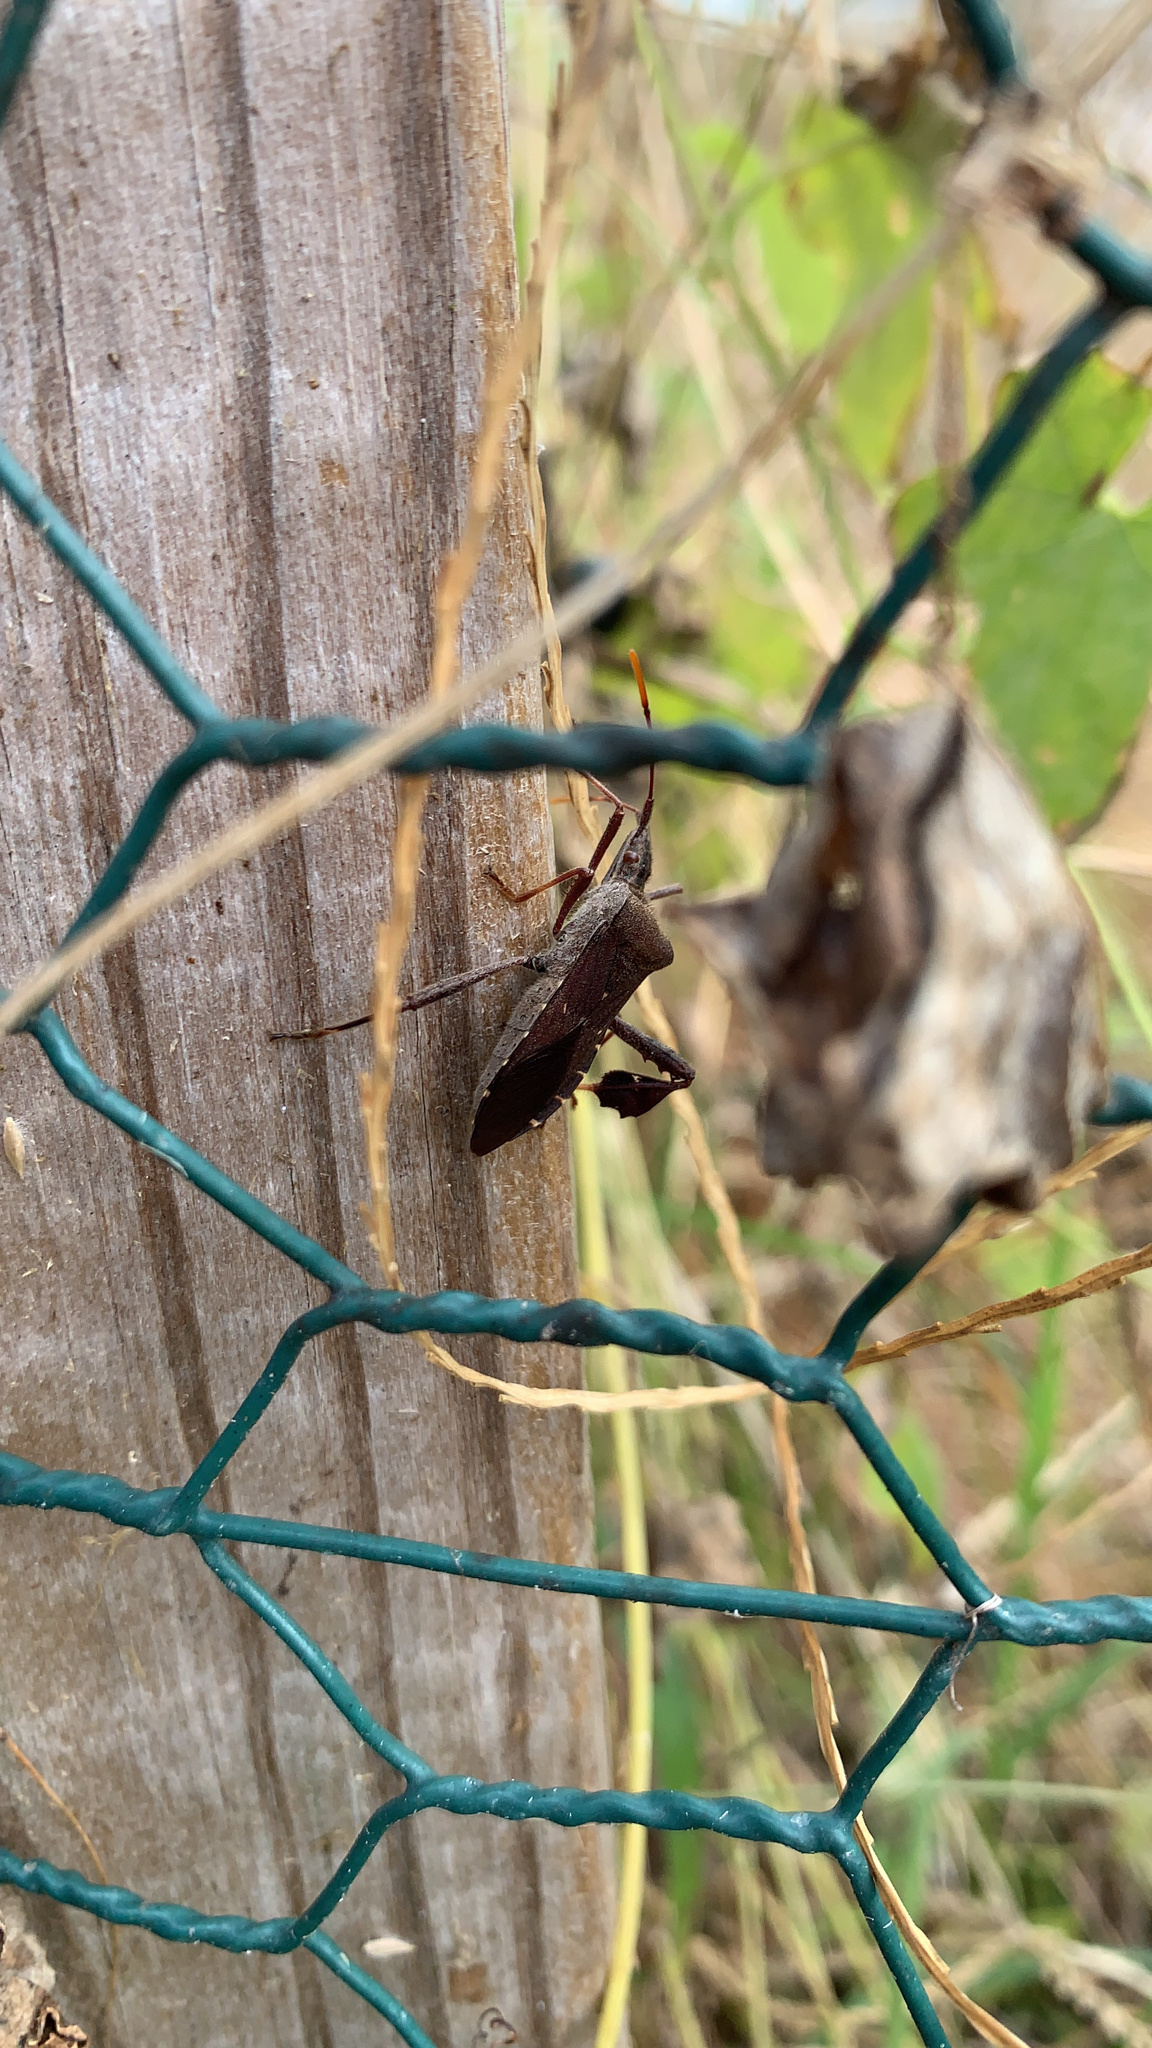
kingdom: Animalia
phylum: Arthropoda
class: Insecta
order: Hemiptera
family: Coreidae
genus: Leptoglossus
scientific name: Leptoglossus oppositus
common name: Northern leaf-footed bug
